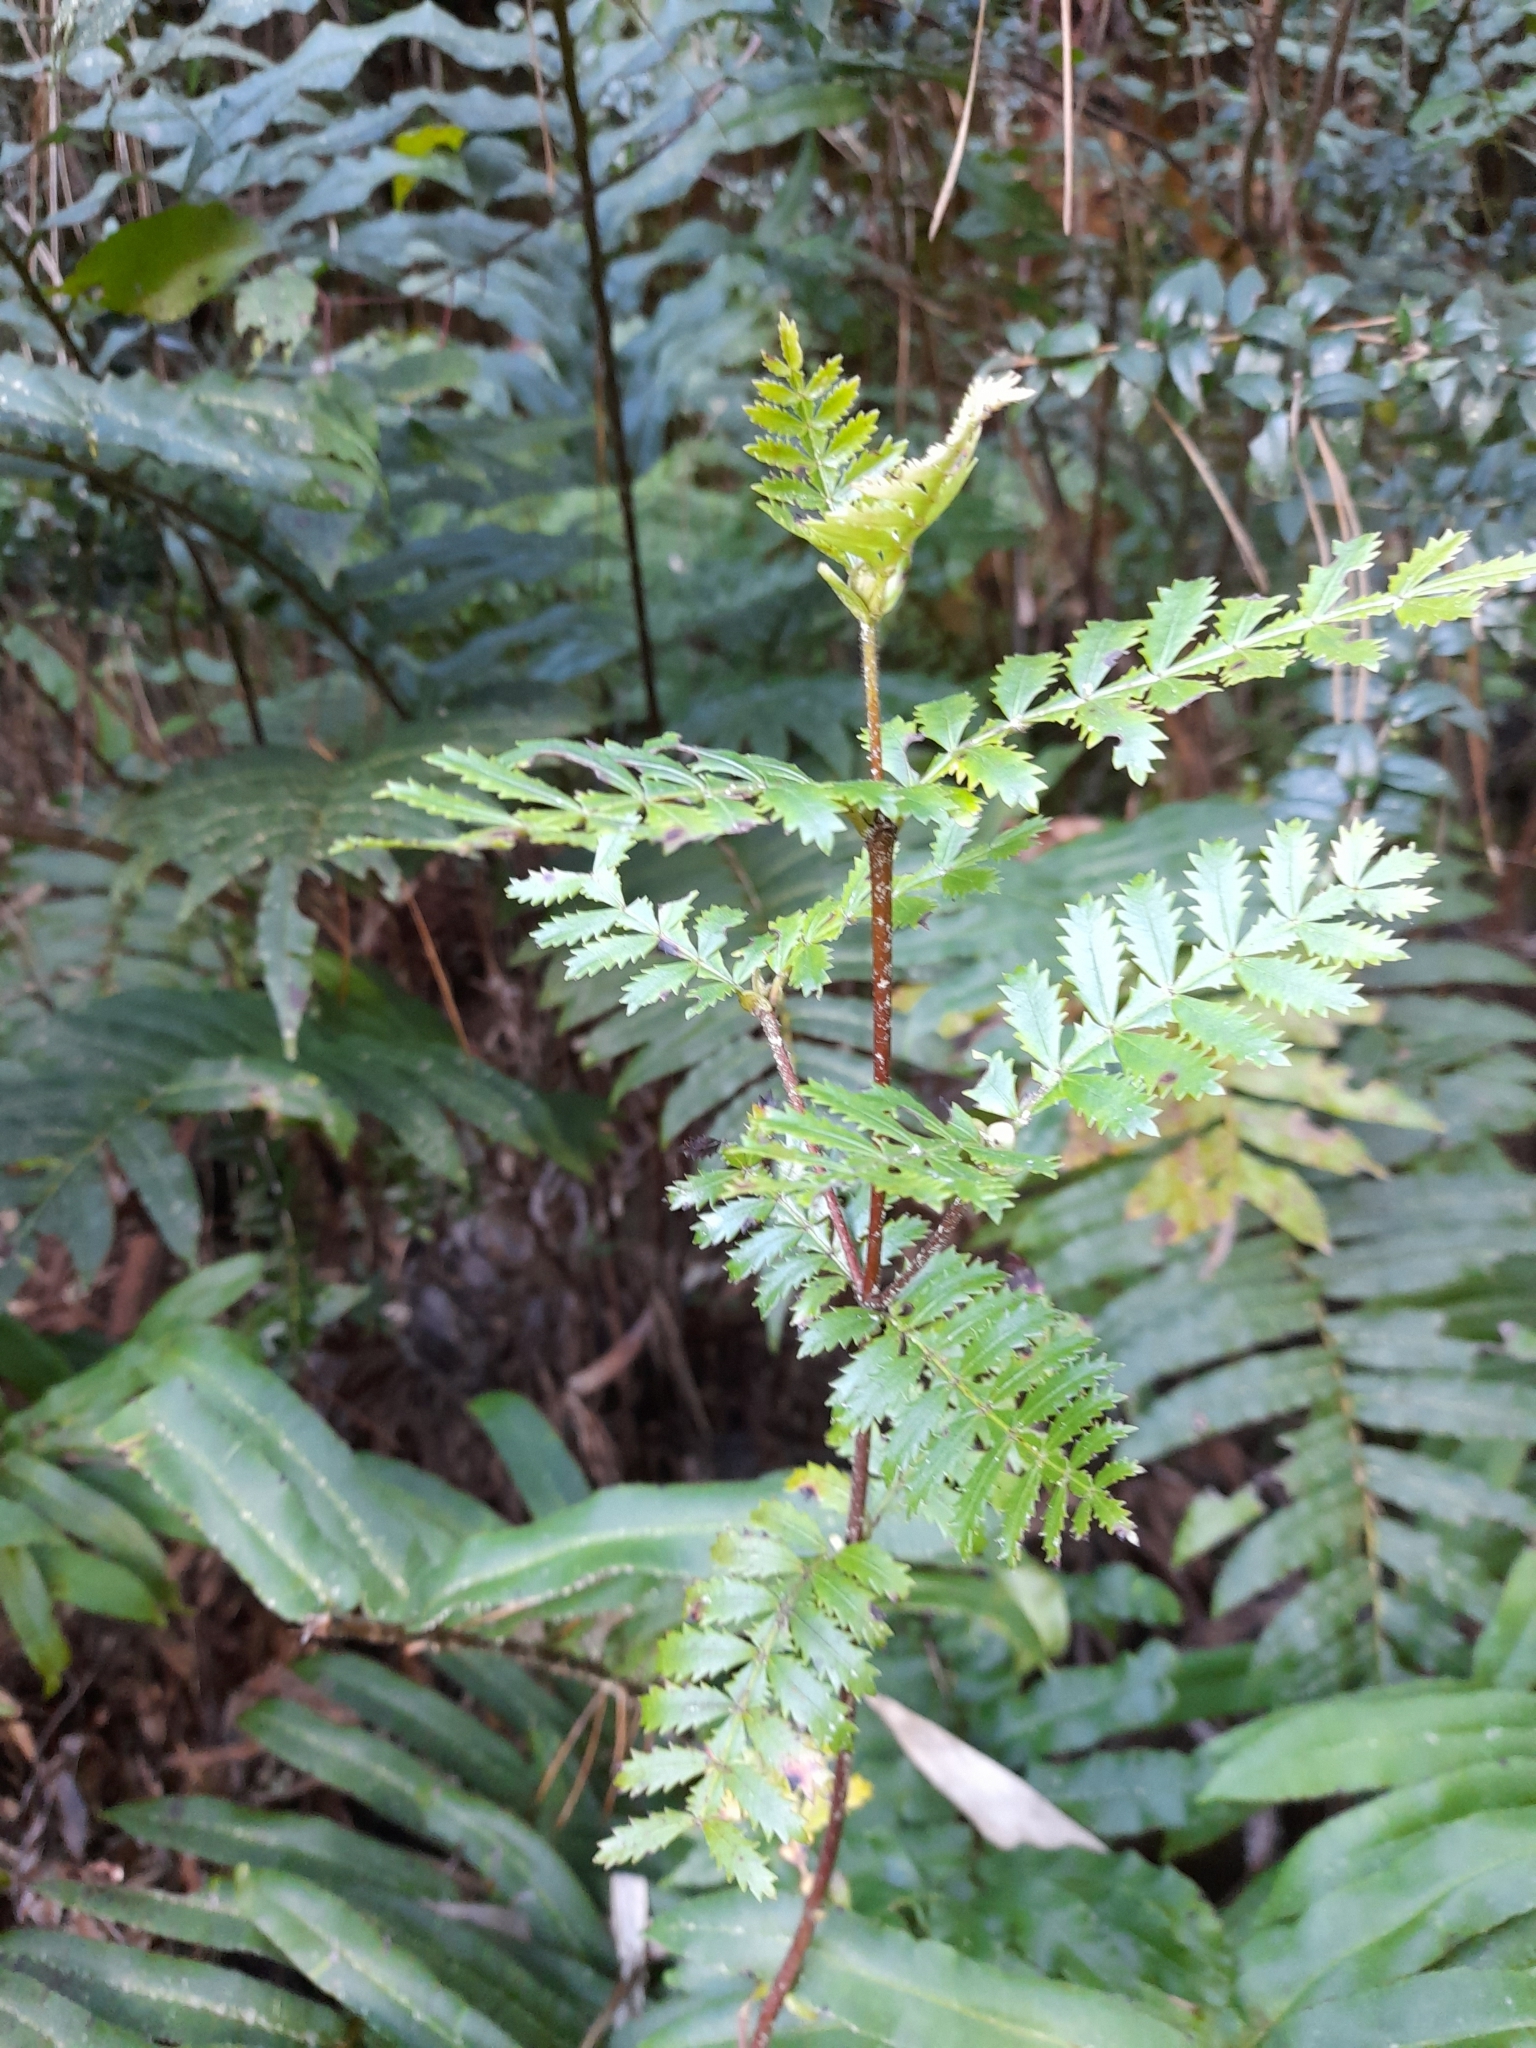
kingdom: Plantae
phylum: Tracheophyta
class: Magnoliopsida
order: Oxalidales
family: Cunoniaceae
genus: Weinmannia
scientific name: Weinmannia trichosperma
